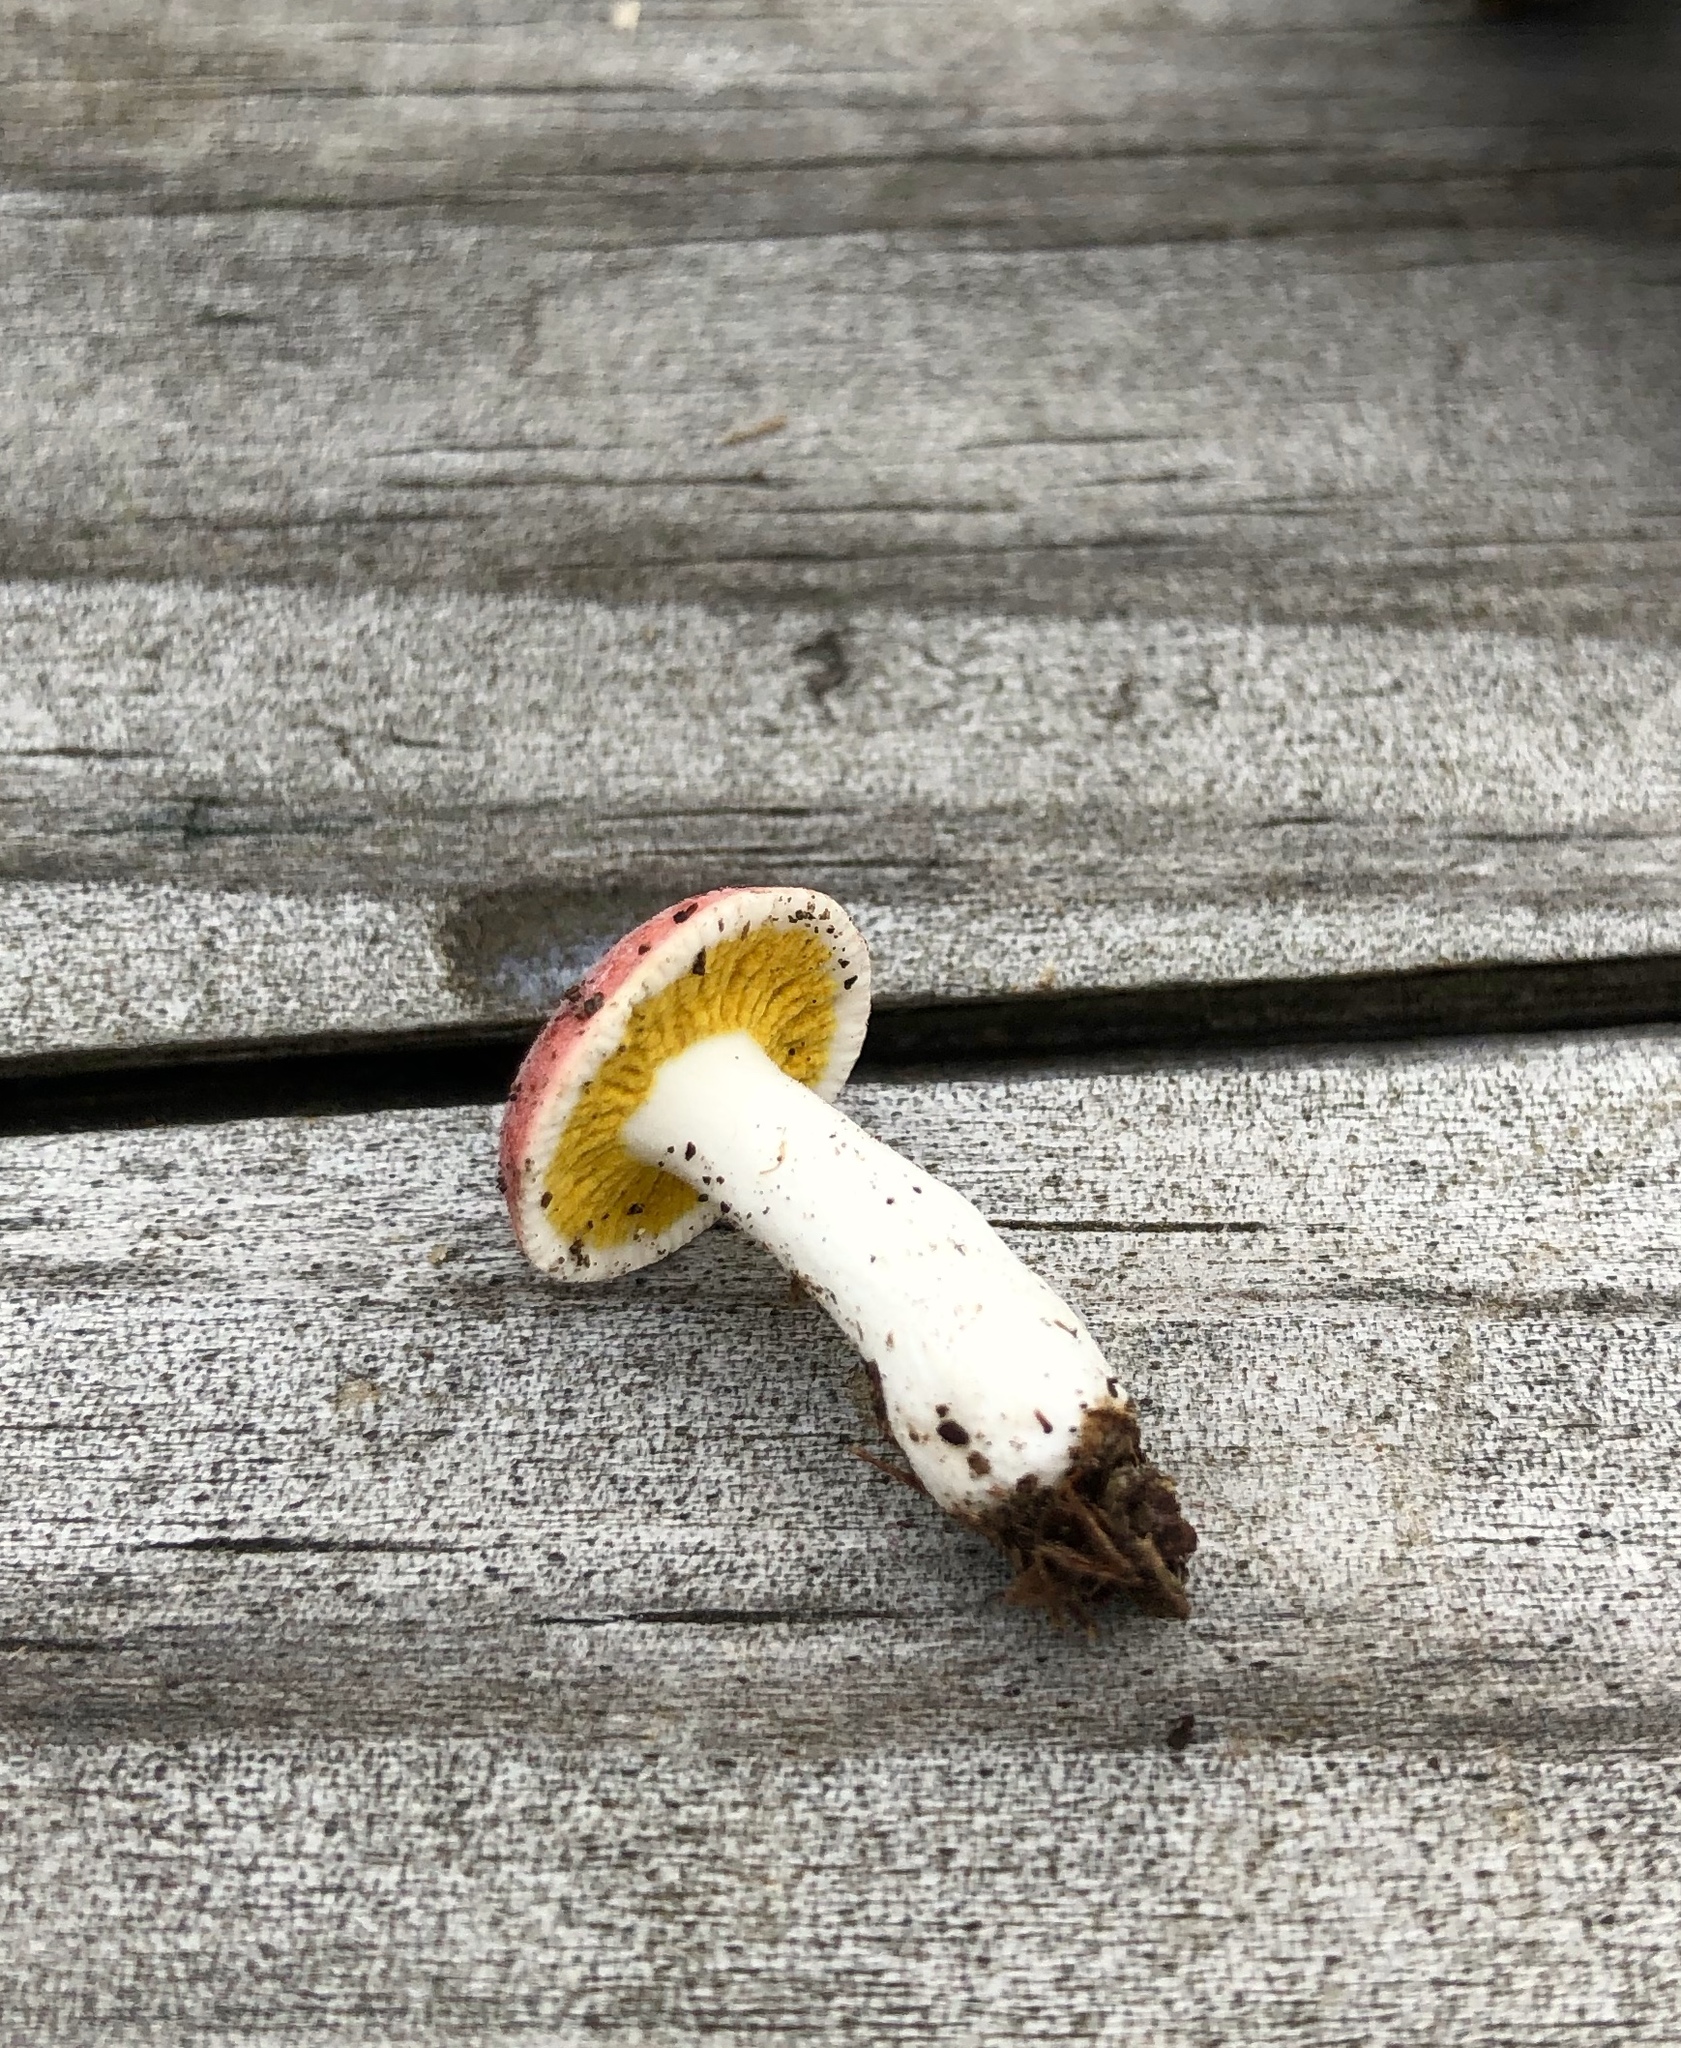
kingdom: Fungi
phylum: Ascomycota
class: Sordariomycetes
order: Hypocreales
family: Hypocreaceae
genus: Hypomyces
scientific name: Hypomyces luteovirens
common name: Yellow-green russula mold
